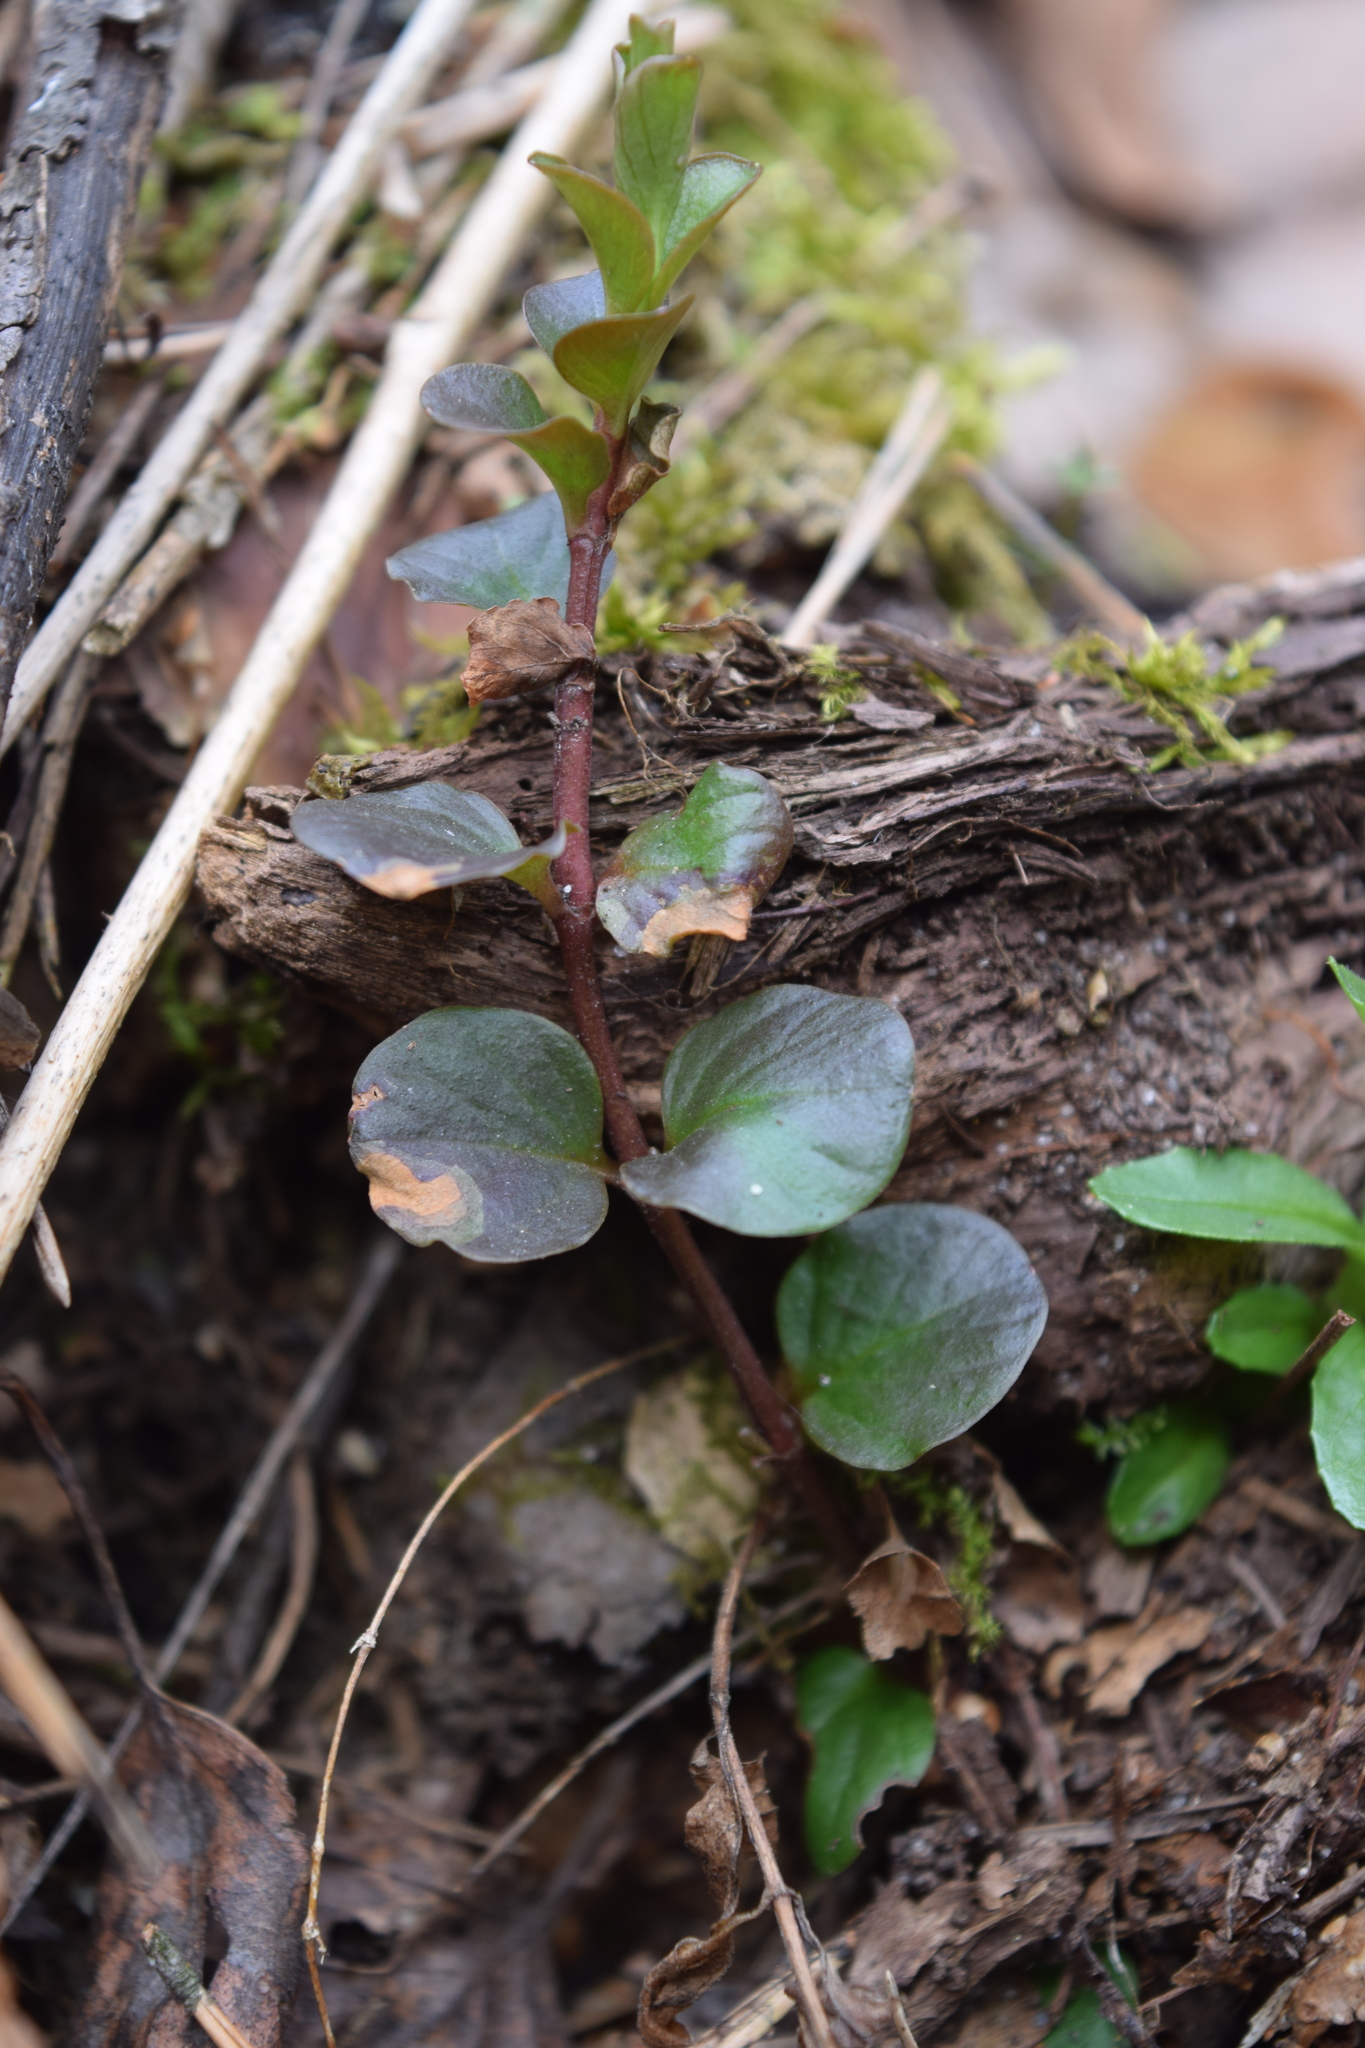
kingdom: Plantae
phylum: Tracheophyta
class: Magnoliopsida
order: Ericales
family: Primulaceae
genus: Lysimachia
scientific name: Lysimachia nummularia
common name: Moneywort
